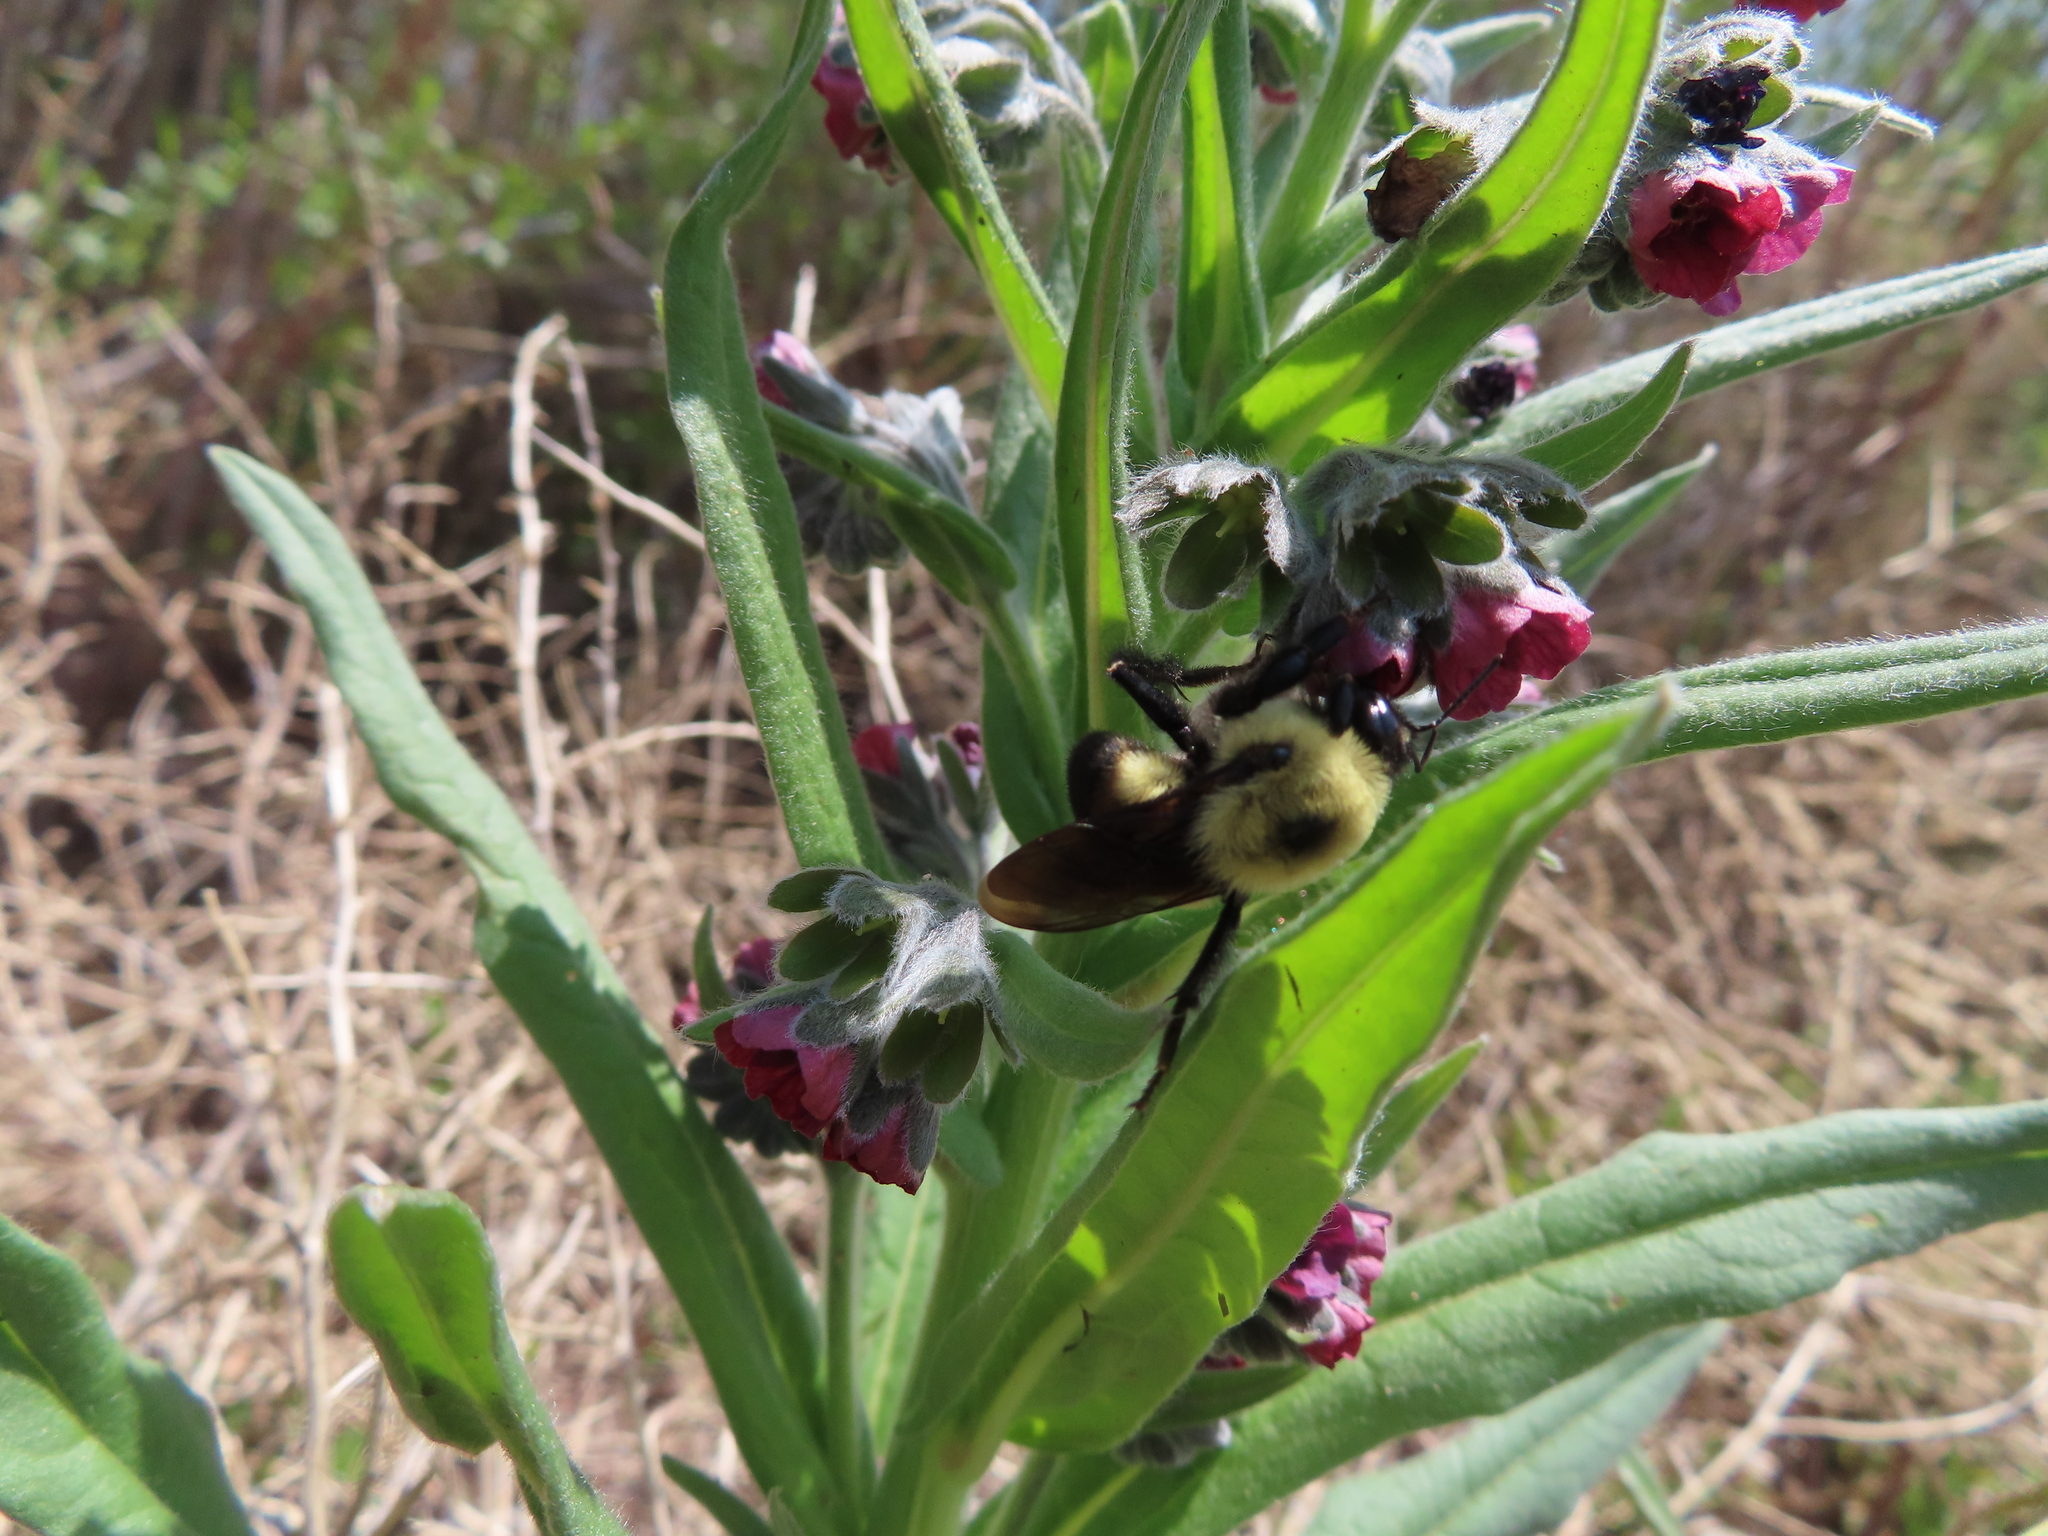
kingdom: Animalia
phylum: Arthropoda
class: Insecta
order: Hymenoptera
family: Apidae
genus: Bombus
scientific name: Bombus griseocollis
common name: Brown-belted bumble bee
